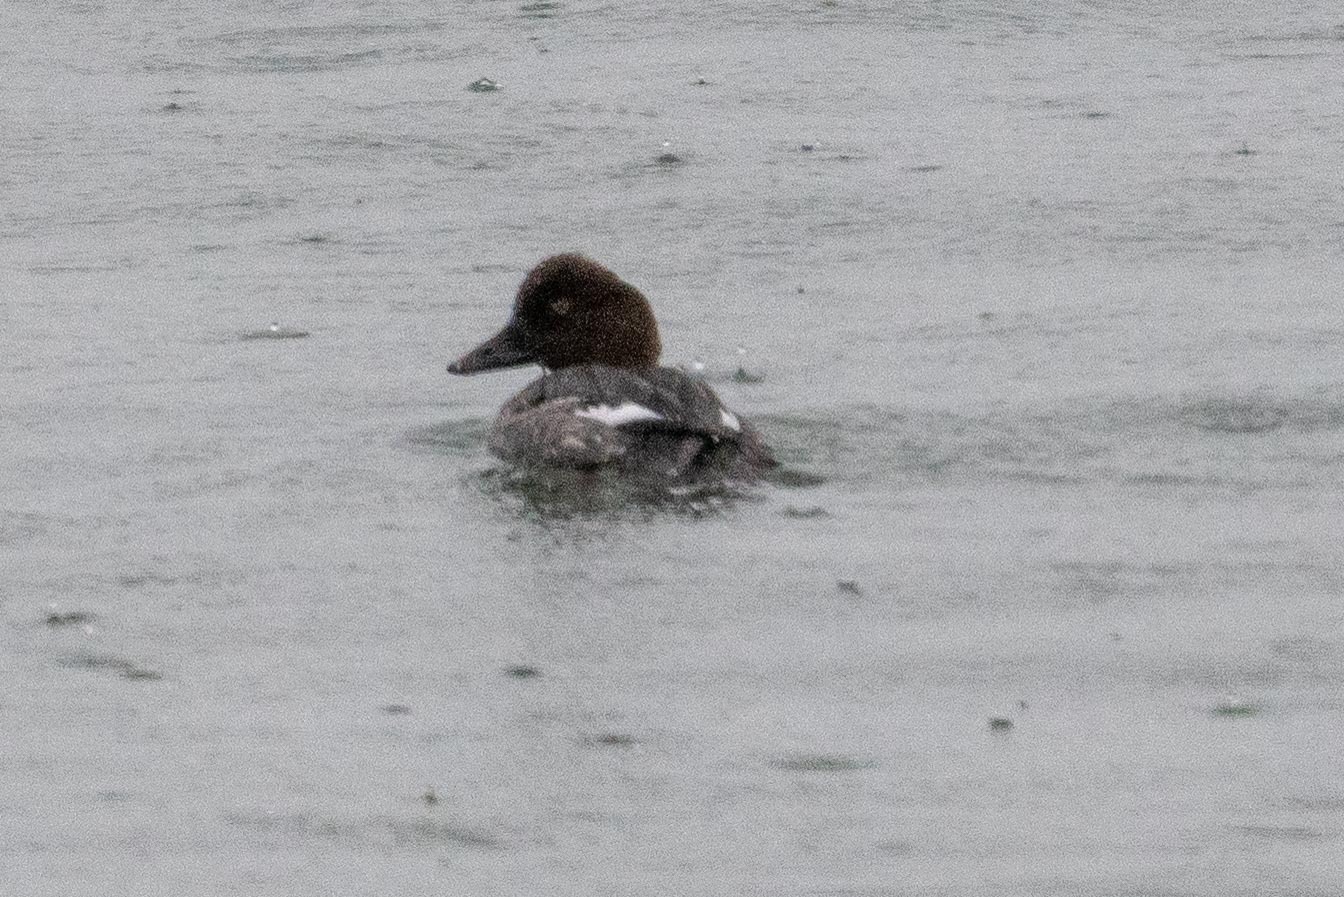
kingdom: Animalia
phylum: Chordata
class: Aves
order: Anseriformes
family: Anatidae
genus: Bucephala
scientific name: Bucephala clangula
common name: Common goldeneye
